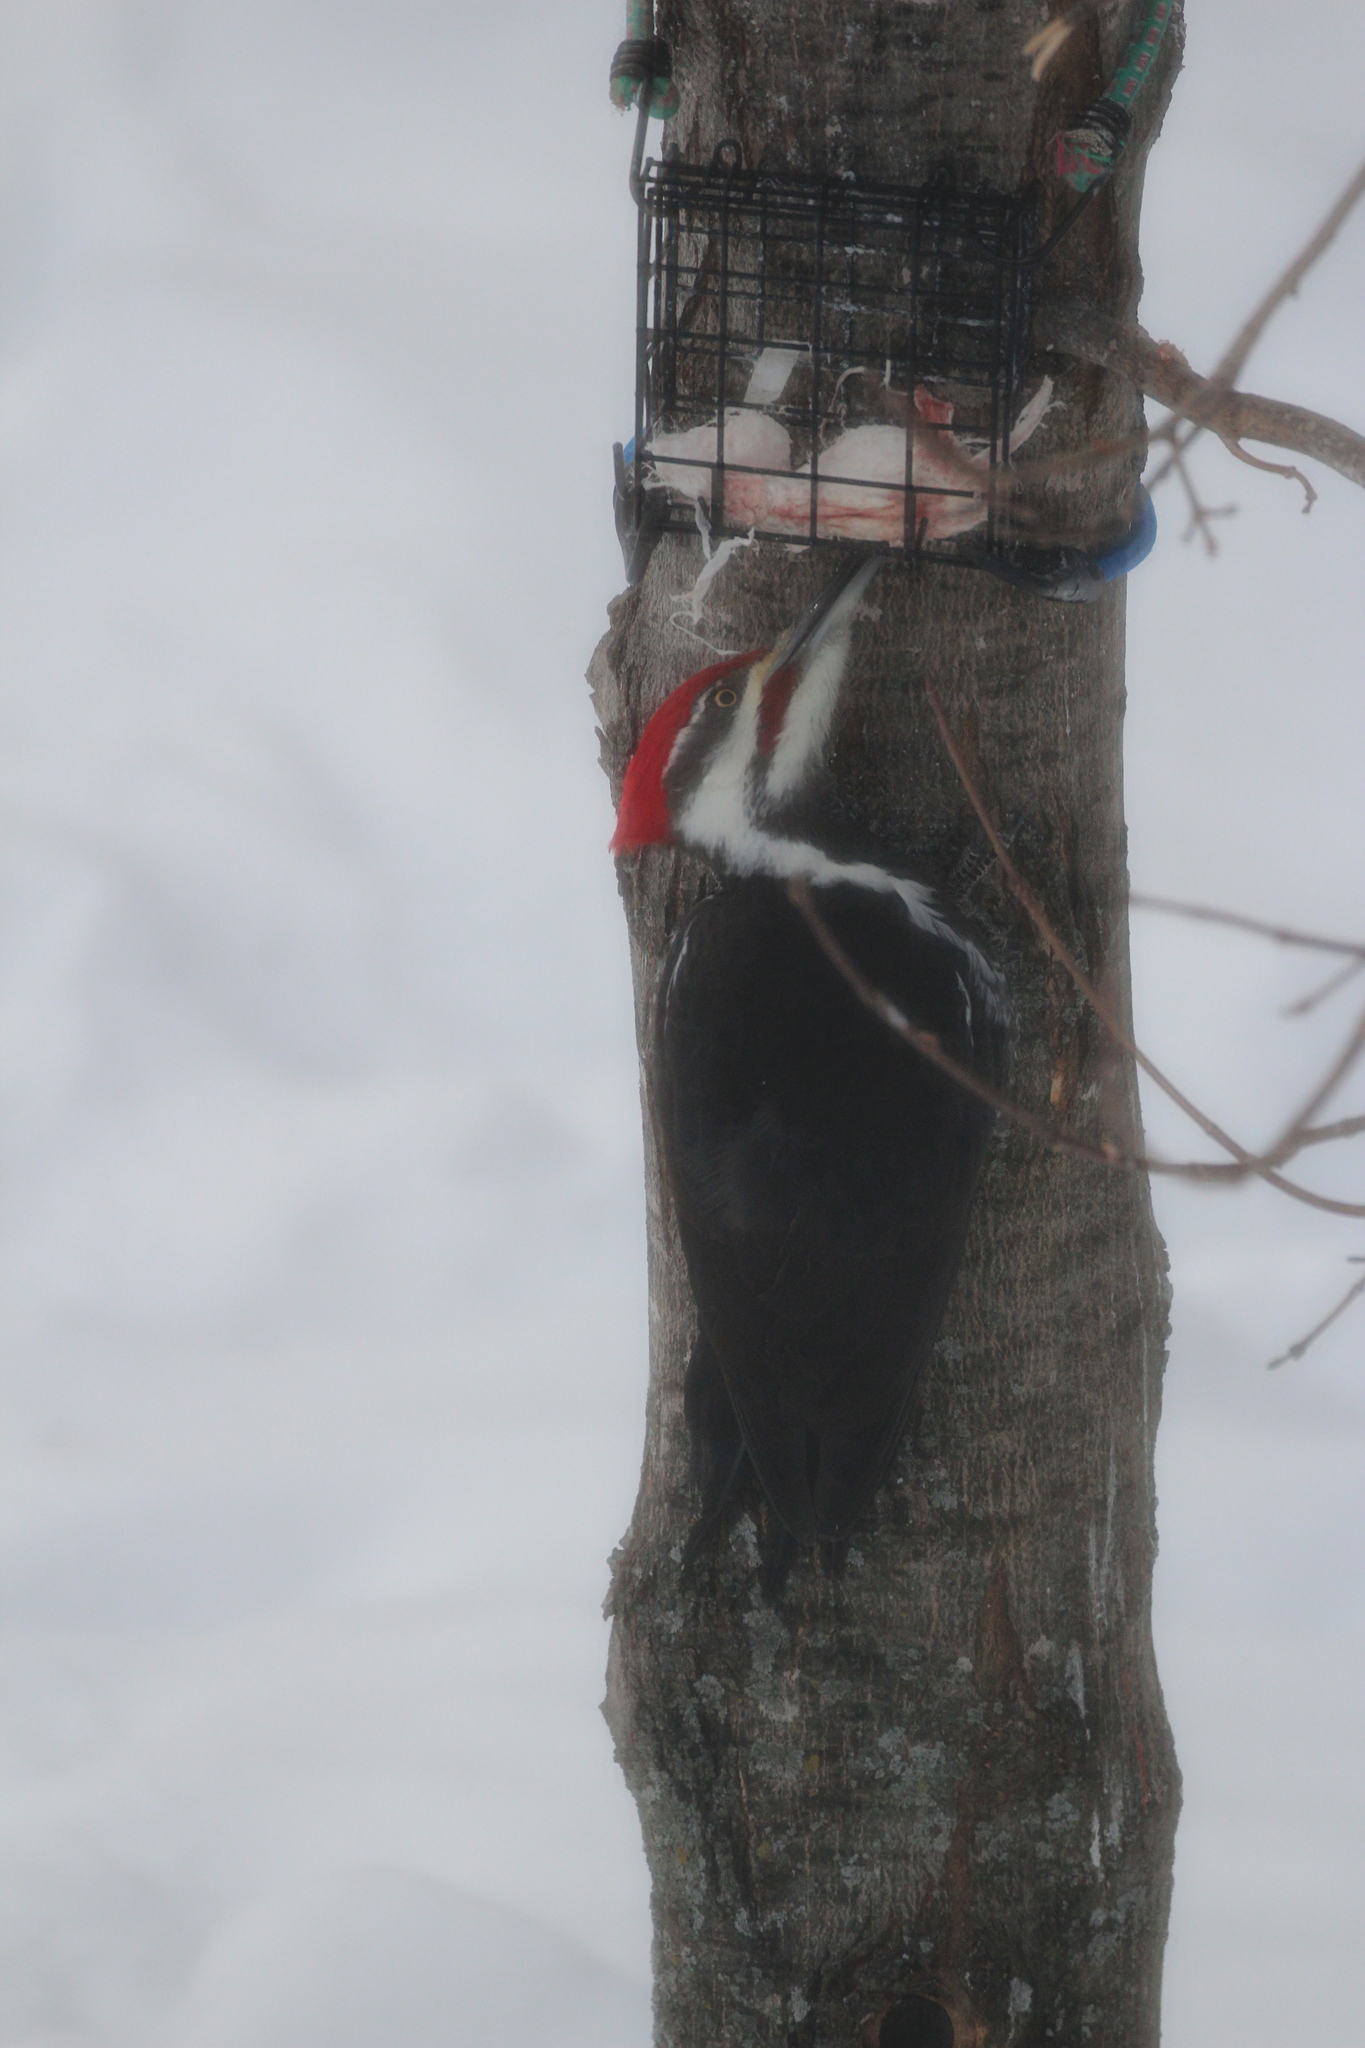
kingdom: Animalia
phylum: Chordata
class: Aves
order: Piciformes
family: Picidae
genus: Dryocopus
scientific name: Dryocopus pileatus
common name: Pileated woodpecker
